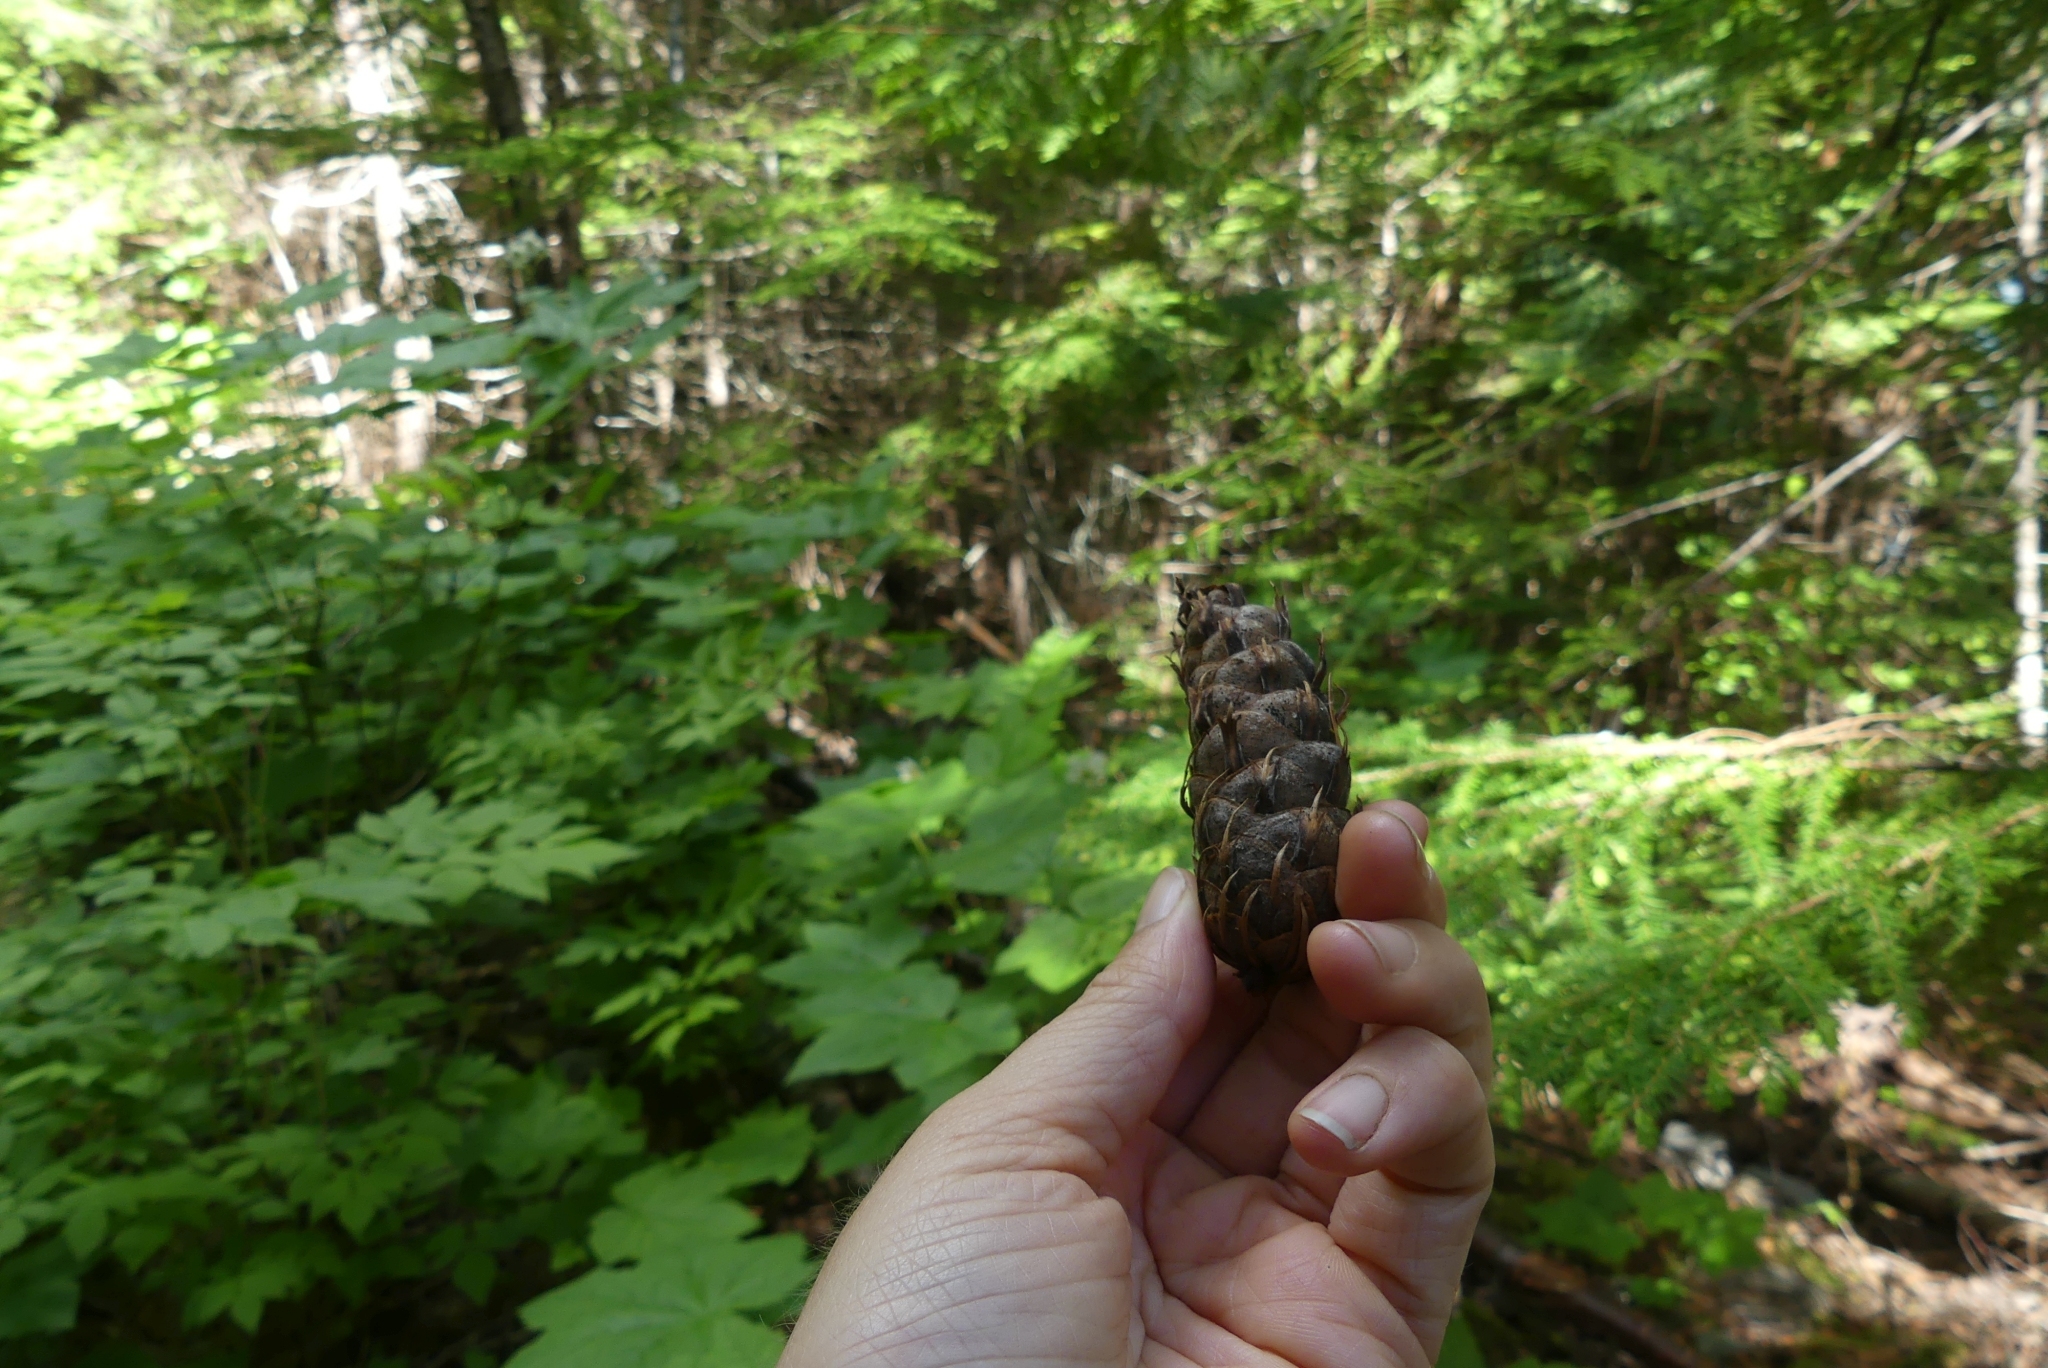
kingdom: Plantae
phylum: Tracheophyta
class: Pinopsida
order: Pinales
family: Pinaceae
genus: Pseudotsuga
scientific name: Pseudotsuga menziesii
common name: Douglas fir
